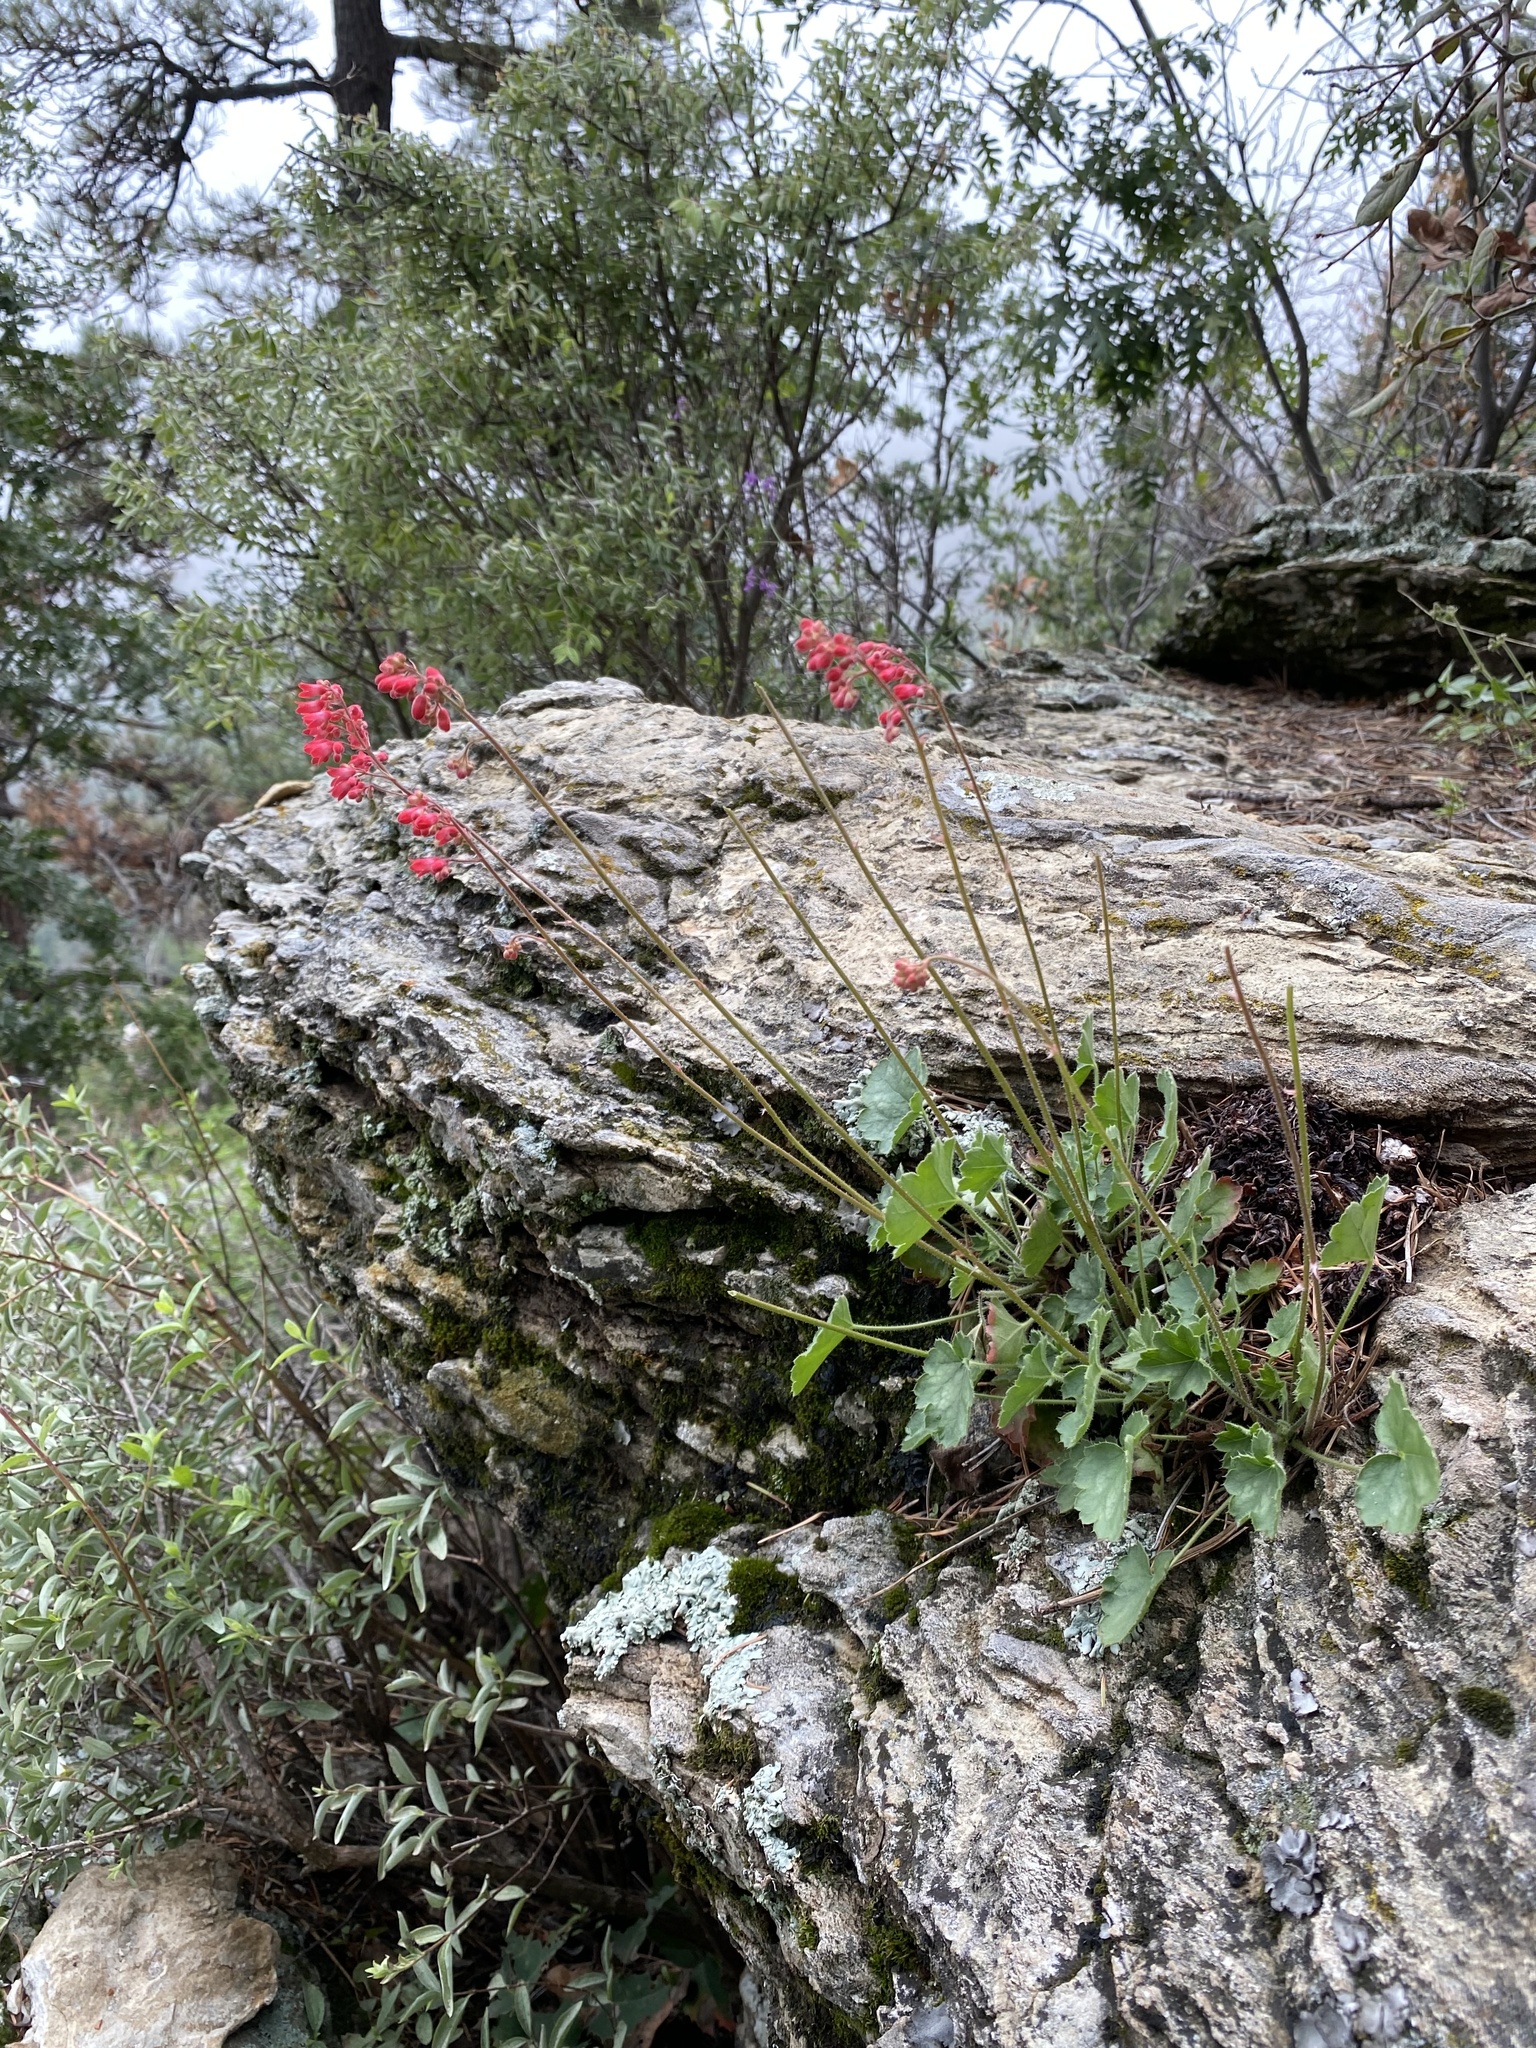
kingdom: Plantae
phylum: Tracheophyta
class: Magnoliopsida
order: Saxifragales
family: Saxifragaceae
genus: Heuchera
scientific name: Heuchera sanguinea
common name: Coralbells
